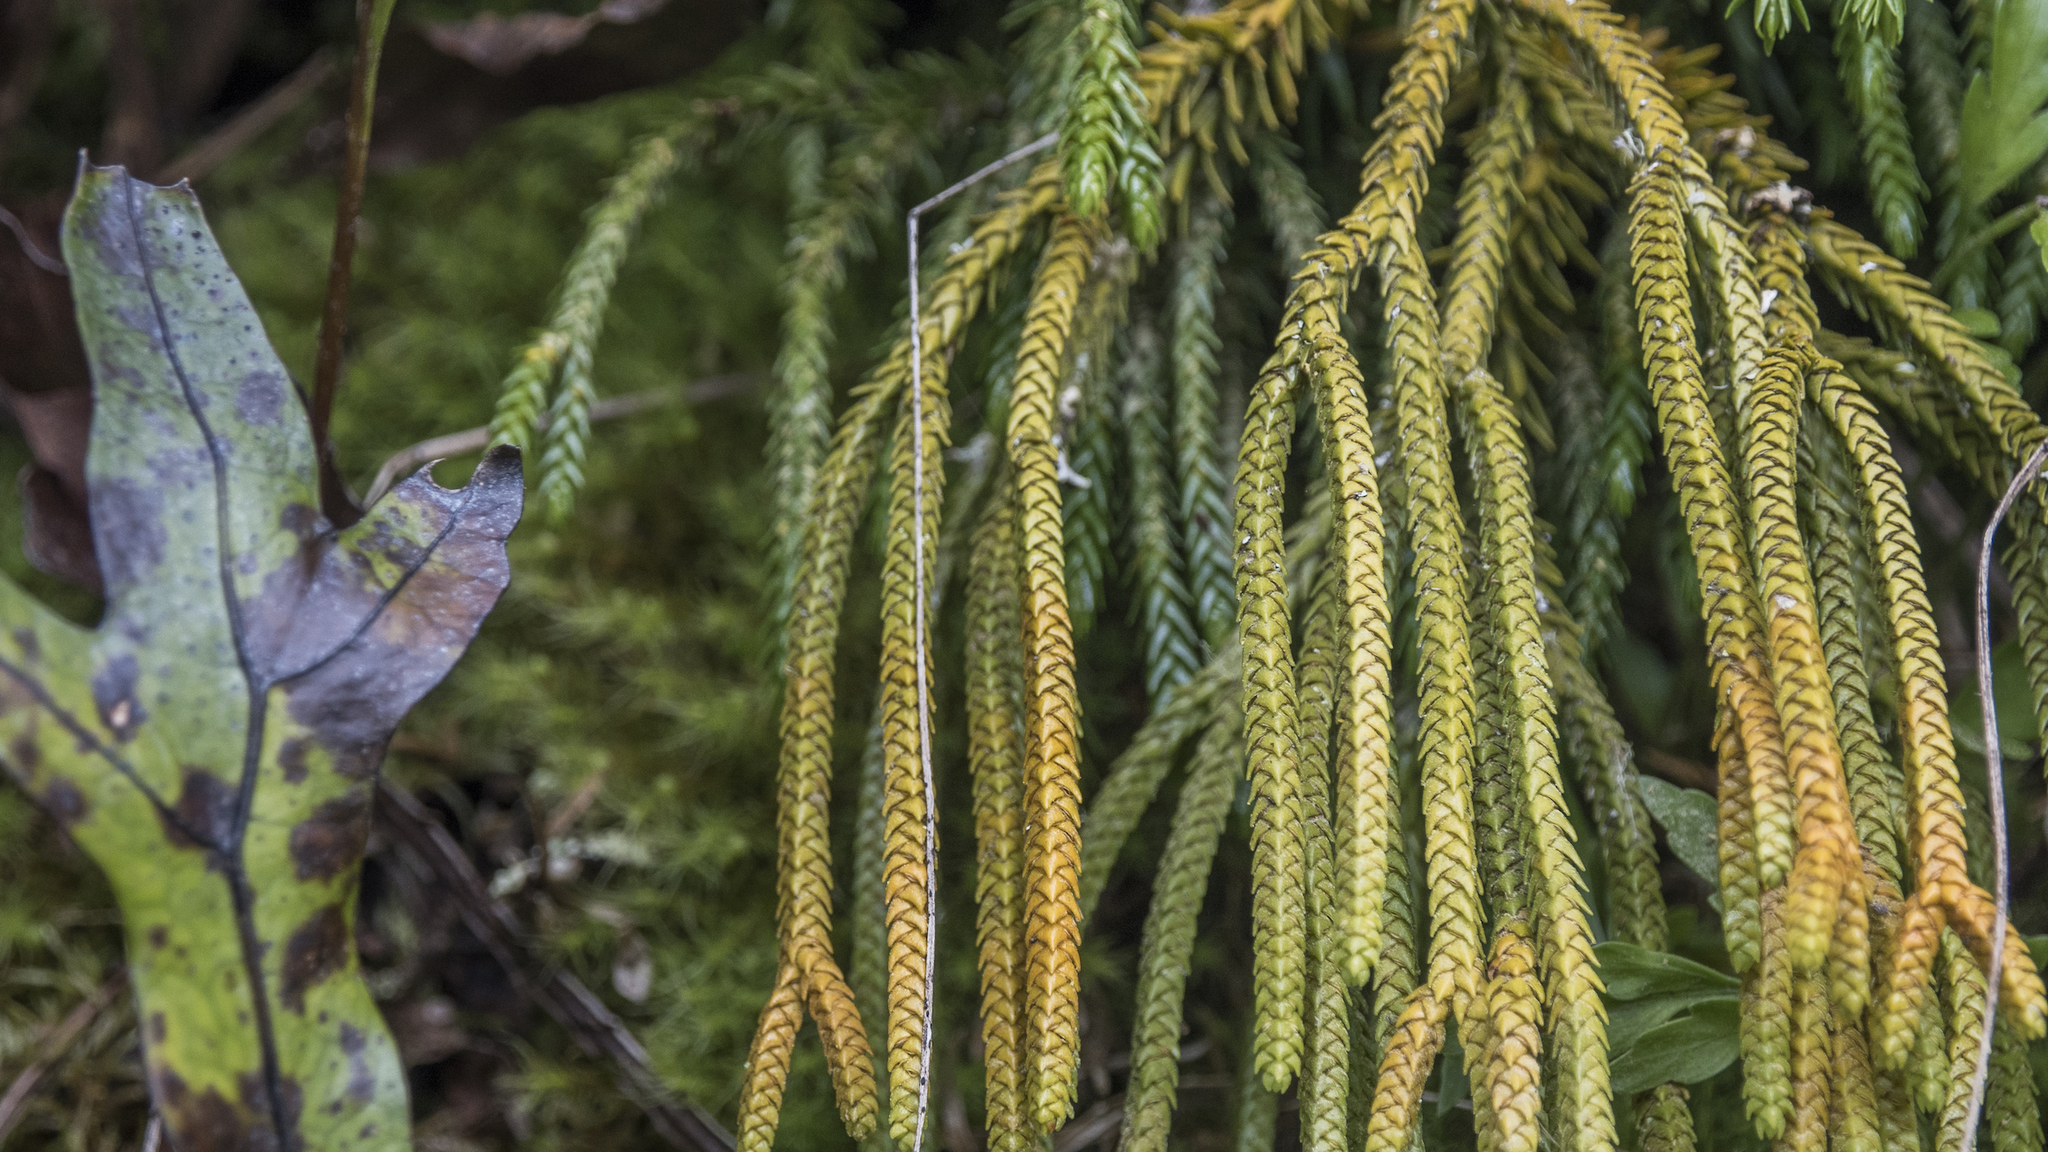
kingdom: Plantae
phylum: Tracheophyta
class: Lycopodiopsida
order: Lycopodiales
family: Lycopodiaceae
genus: Phlegmariurus
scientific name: Phlegmariurus varius
